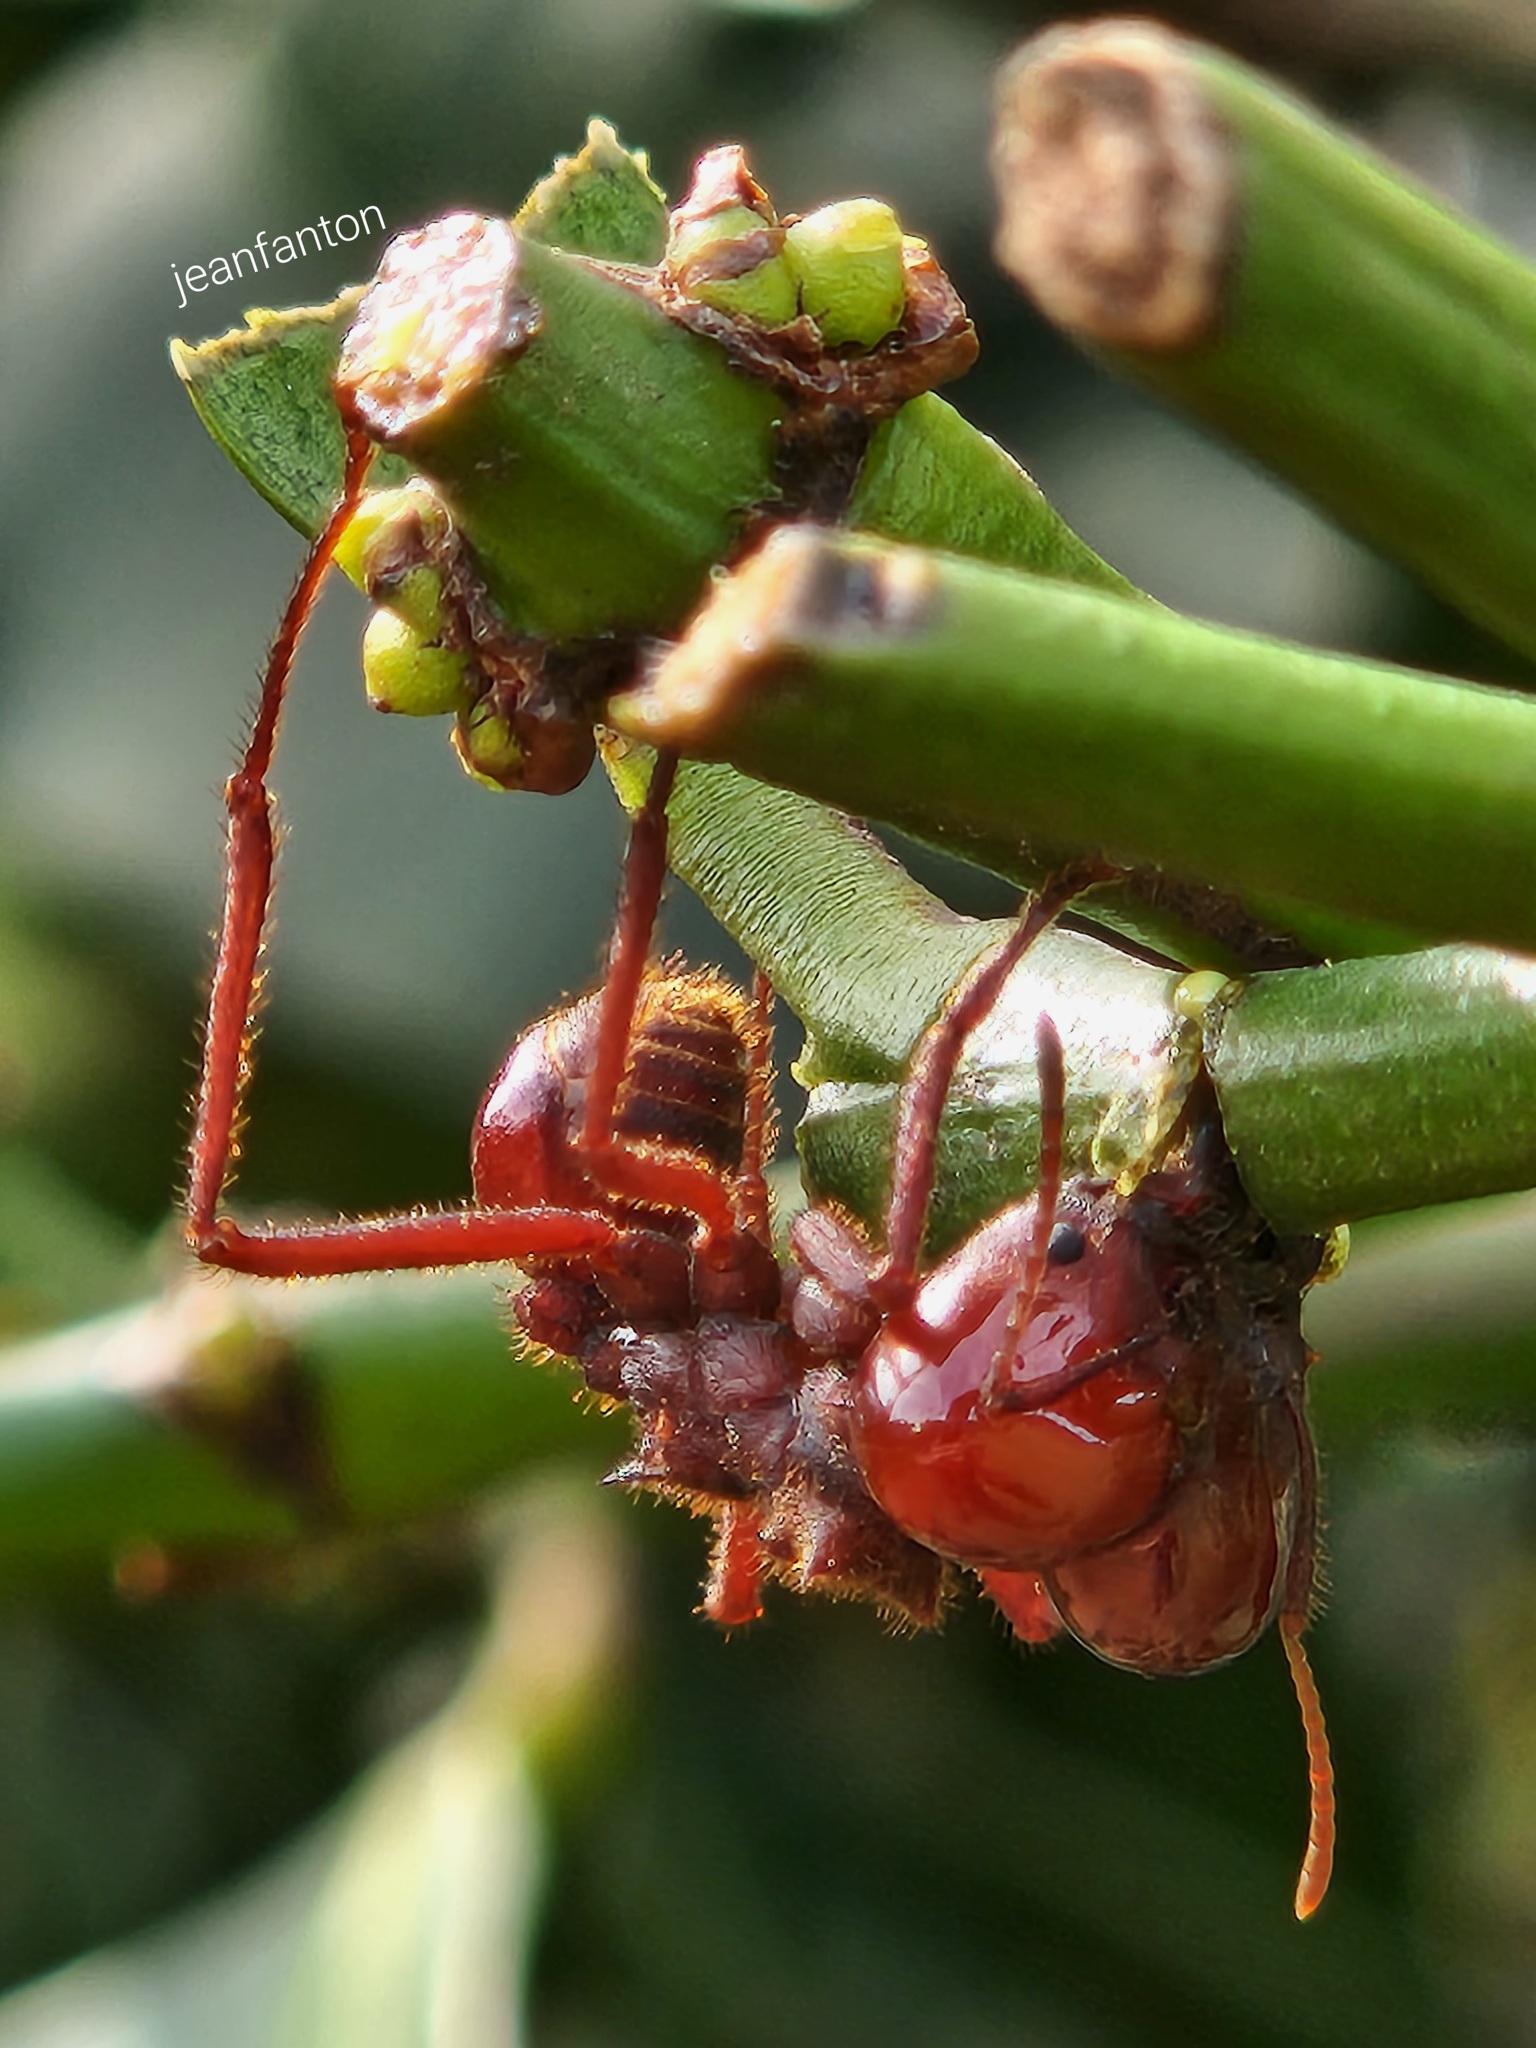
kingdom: Animalia
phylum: Arthropoda
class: Insecta
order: Hymenoptera
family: Formicidae
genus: Atta
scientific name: Atta laevigata
